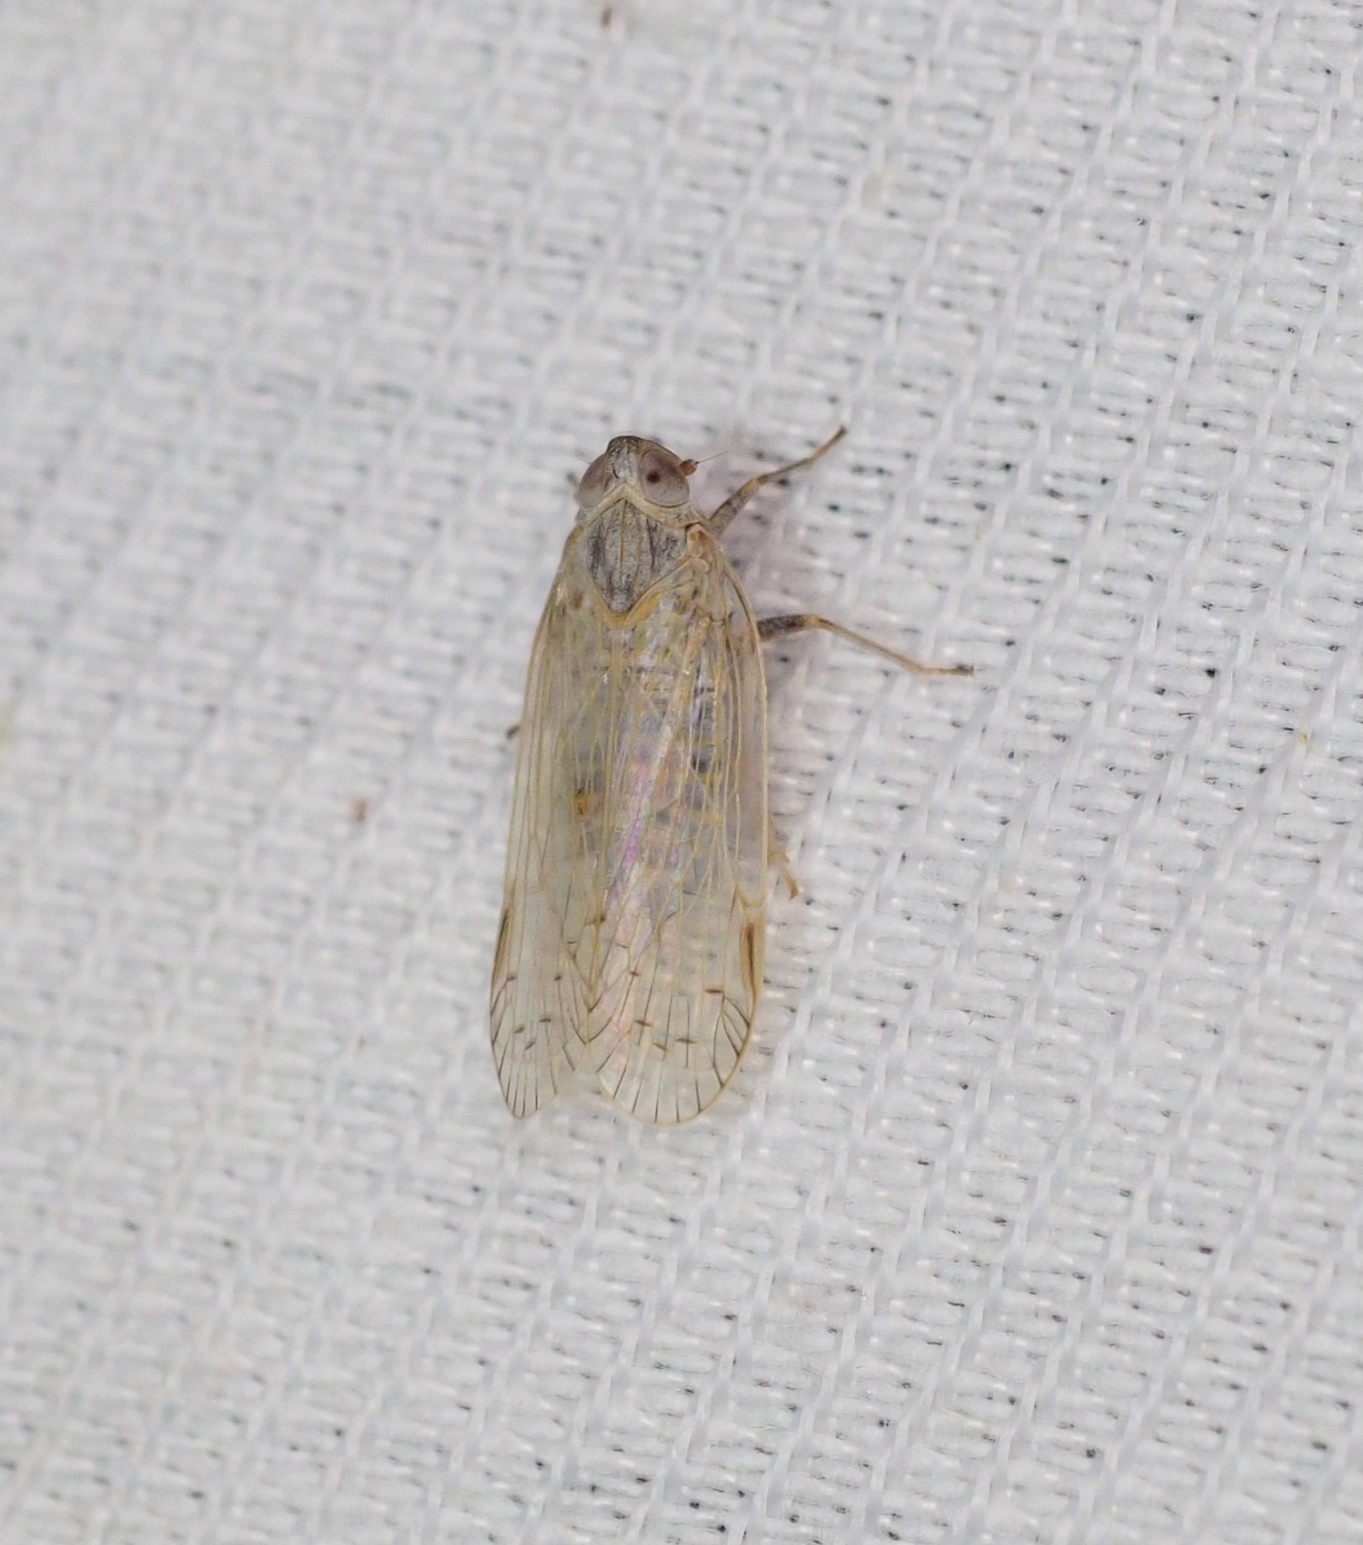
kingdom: Animalia
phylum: Arthropoda
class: Insecta
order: Hemiptera
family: Cixiidae
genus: Pentastiridius
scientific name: Pentastiridius leporinus
